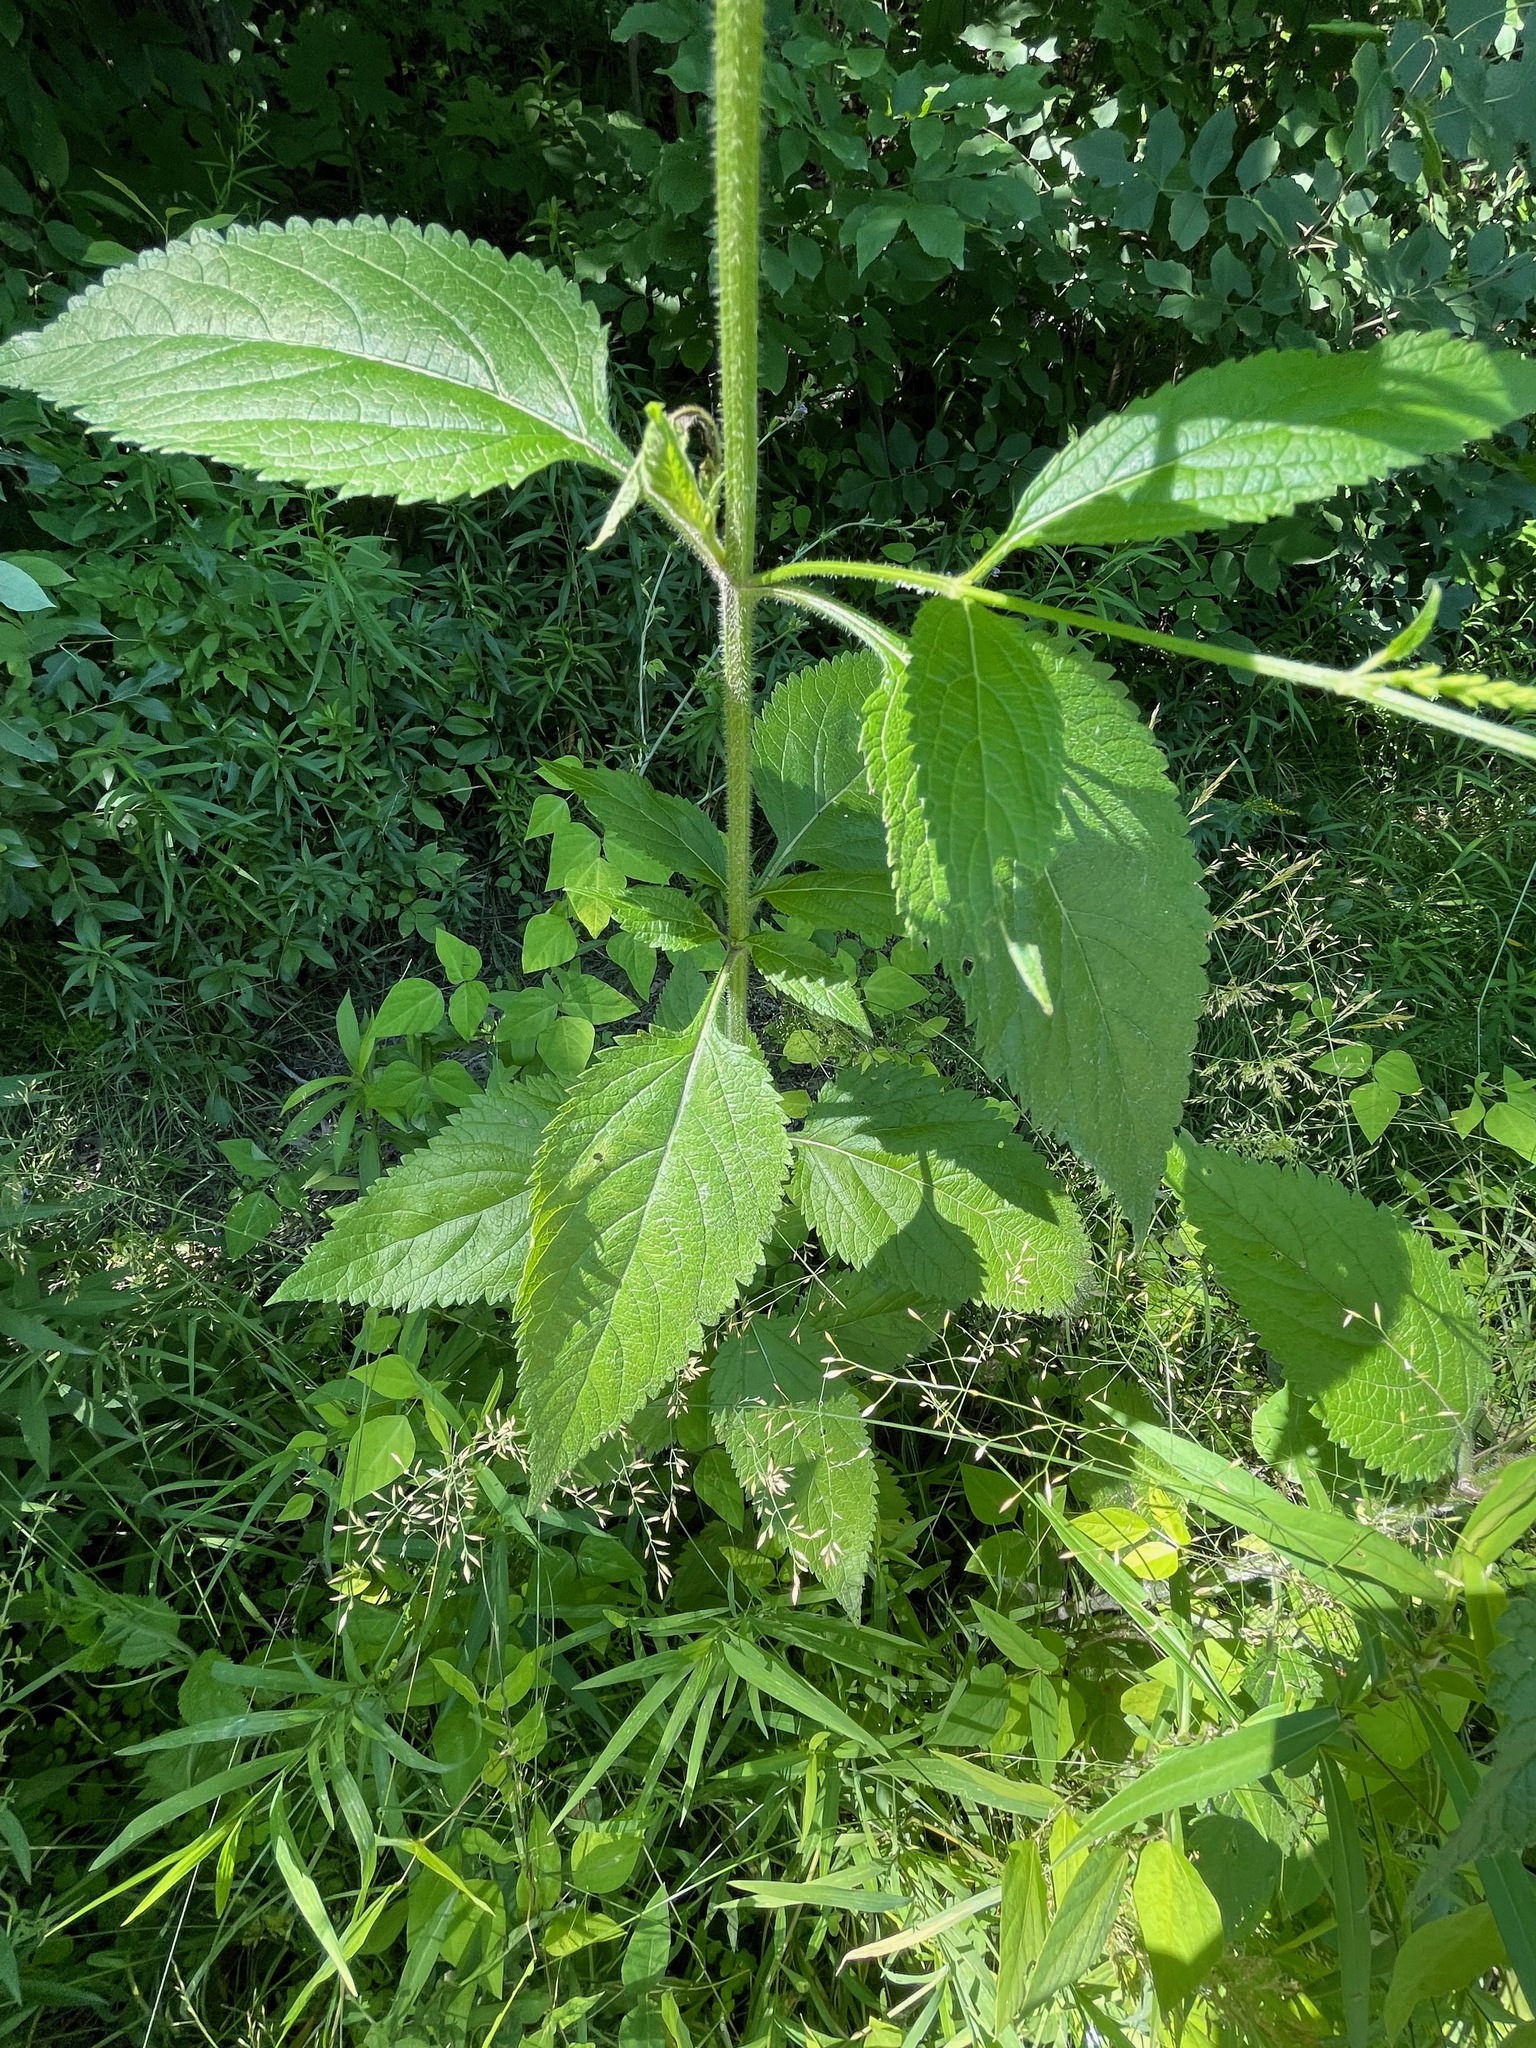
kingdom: Plantae
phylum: Tracheophyta
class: Magnoliopsida
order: Lamiales
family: Verbenaceae
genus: Verbena
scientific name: Verbena urticifolia
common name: Nettle-leaved vervain
